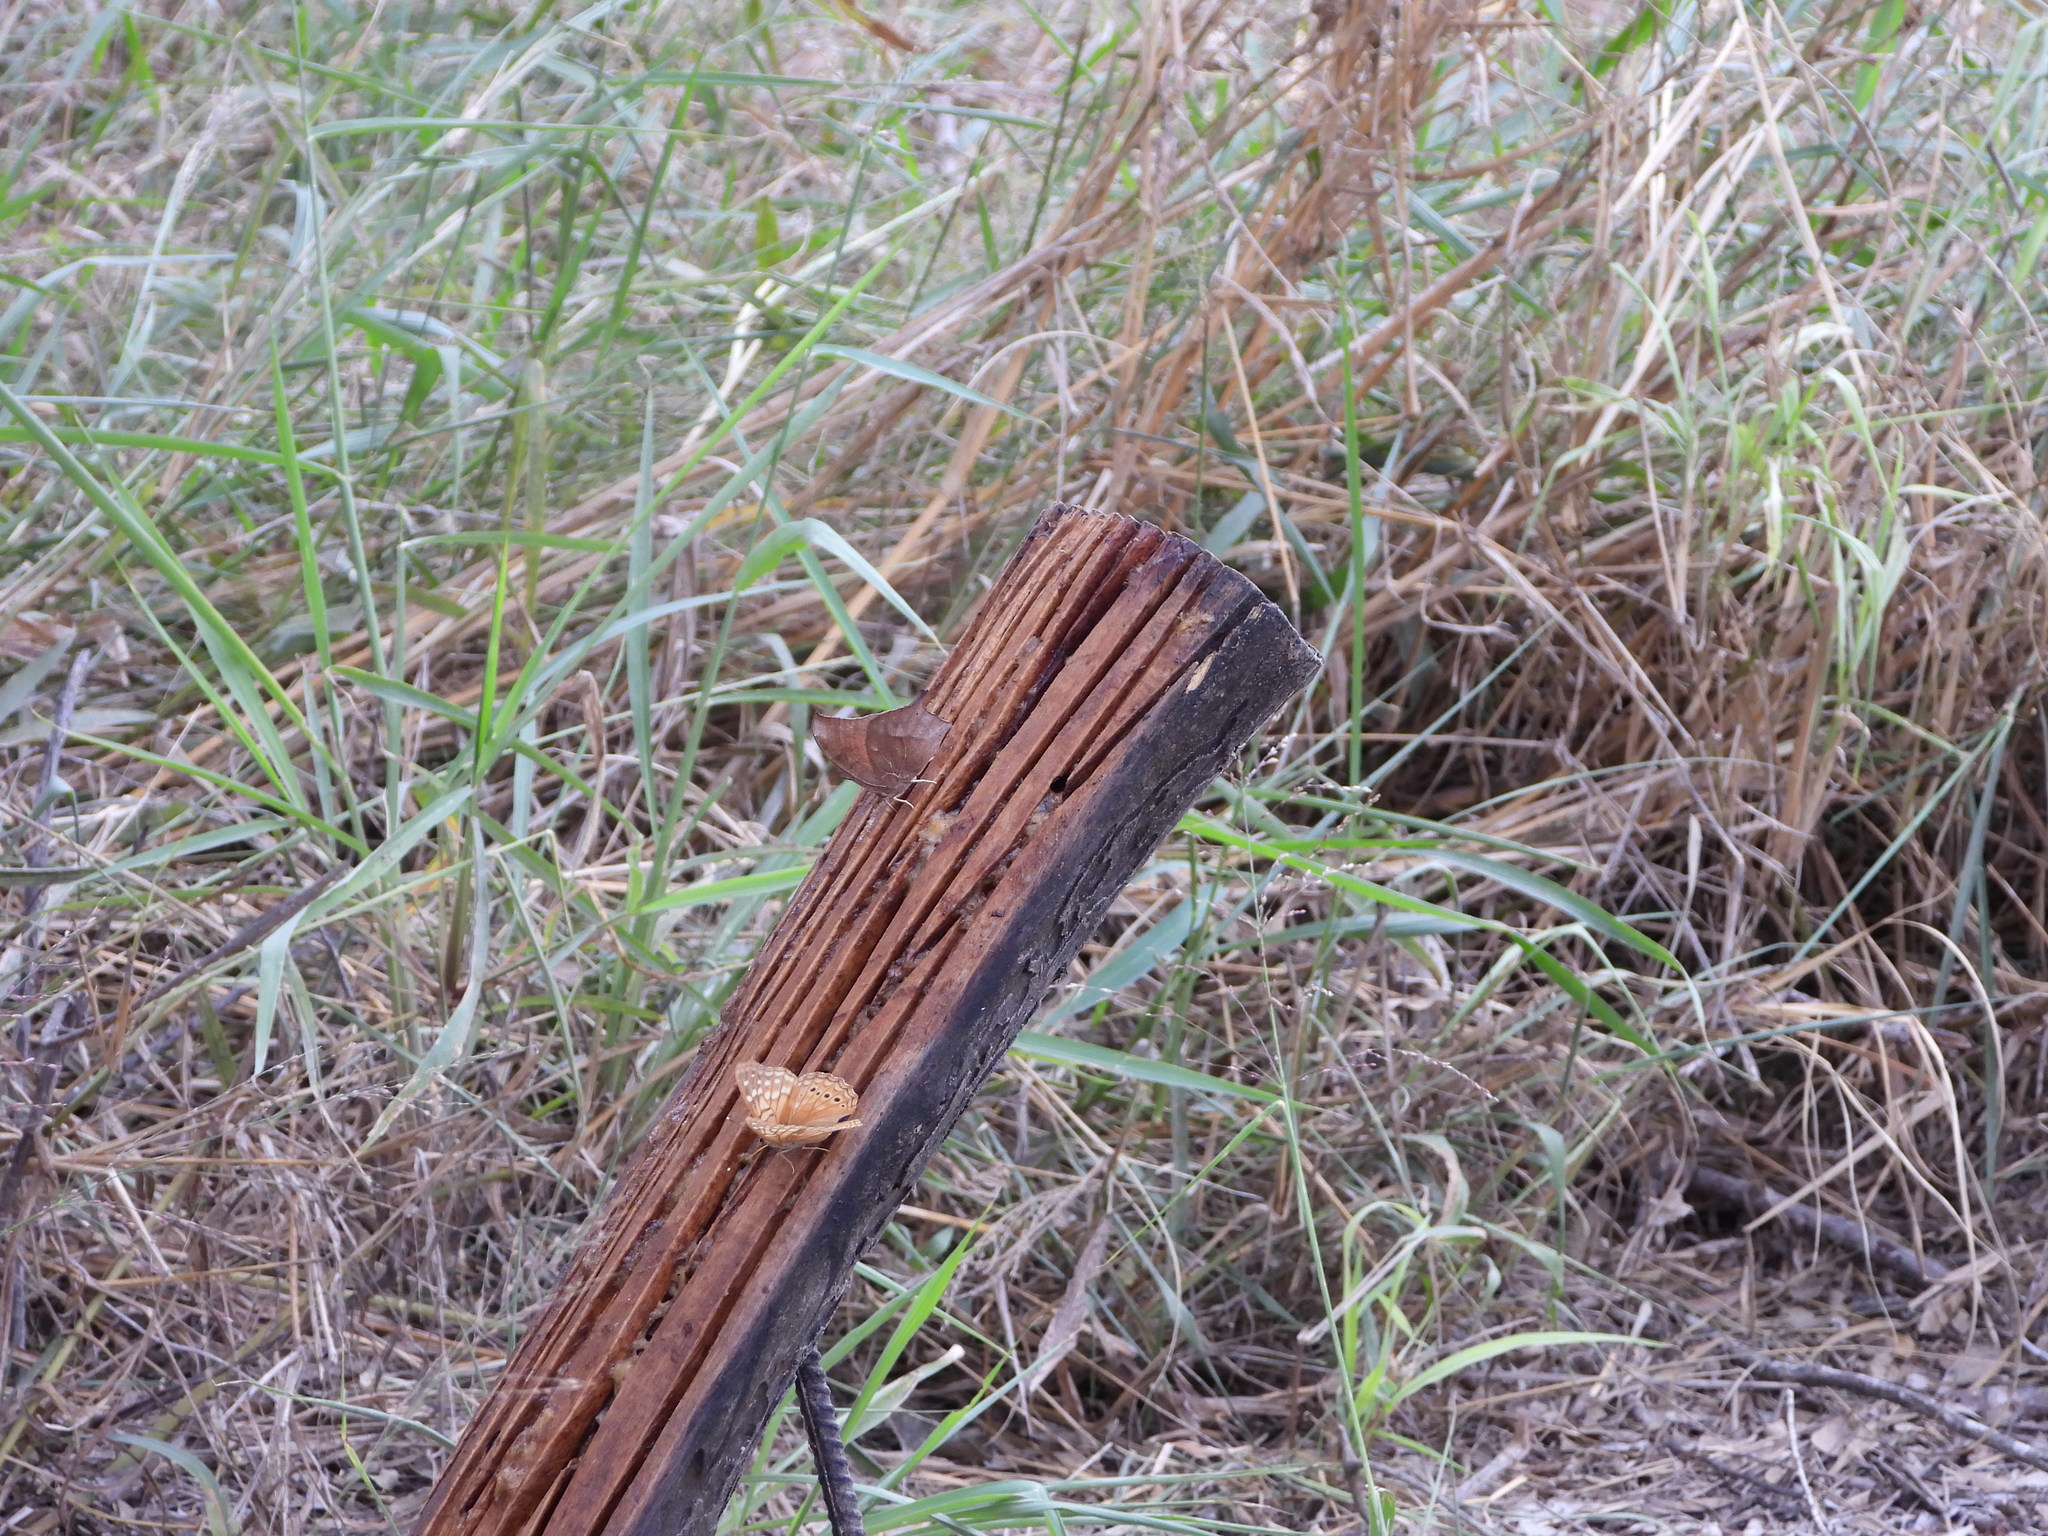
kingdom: Animalia
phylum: Arthropoda
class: Insecta
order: Lepidoptera
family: Nymphalidae
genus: Anaea
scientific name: Anaea aidea
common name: Tropical leafwing
